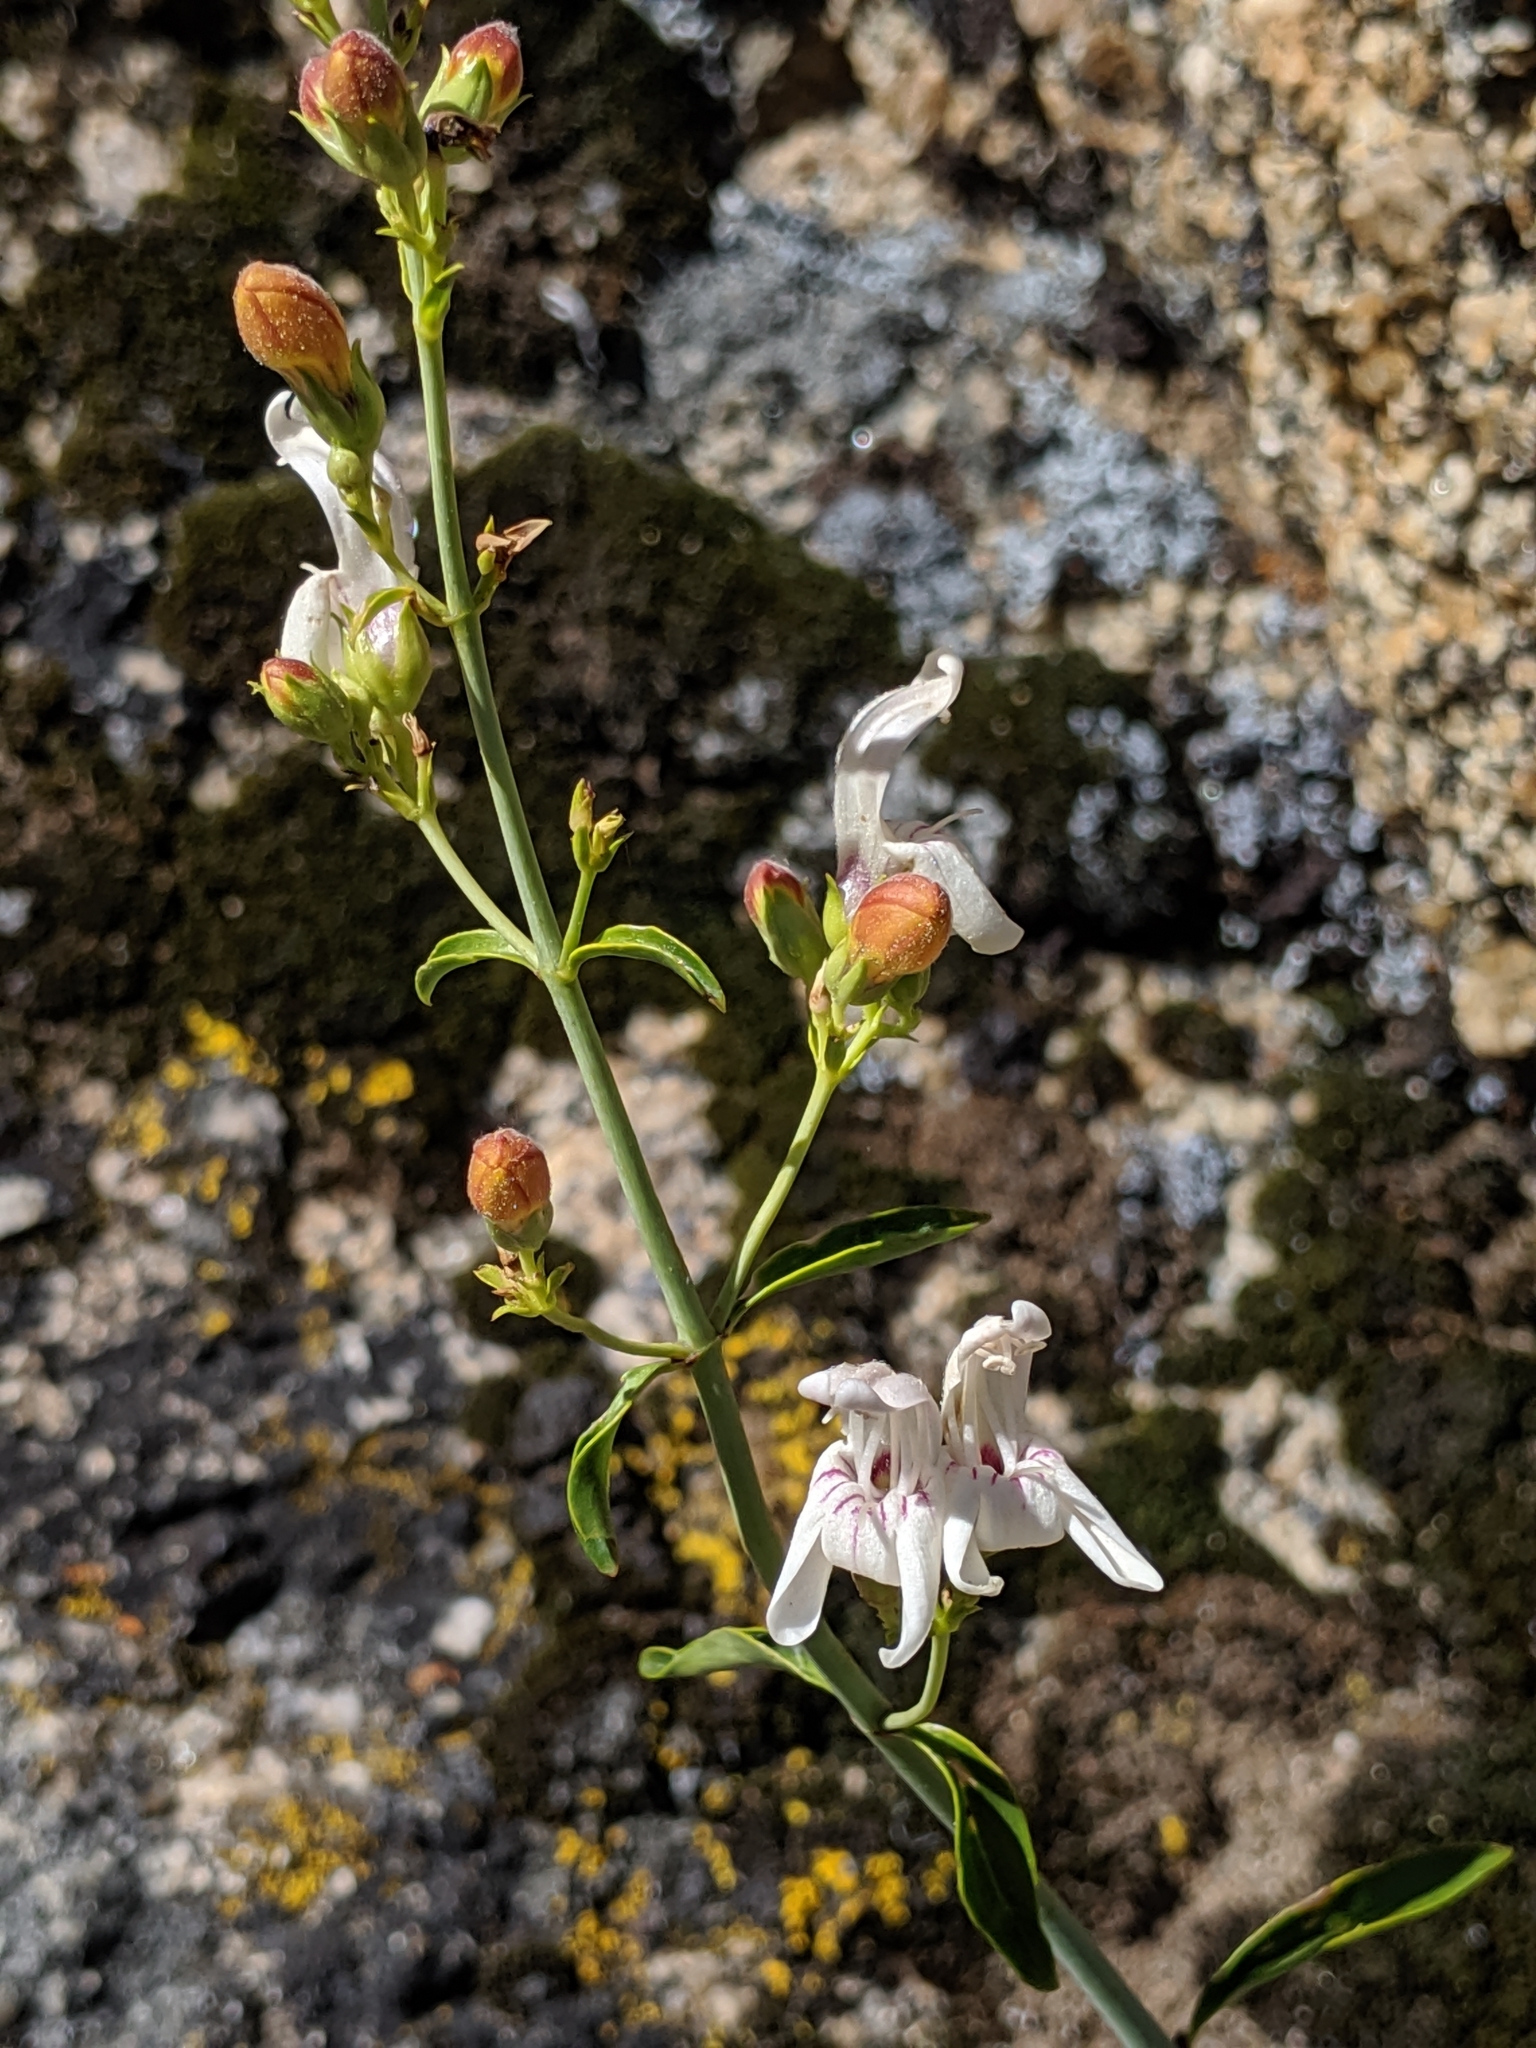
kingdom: Plantae
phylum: Tracheophyta
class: Magnoliopsida
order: Lamiales
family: Plantaginaceae
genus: Keckiella
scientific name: Keckiella breviflora
